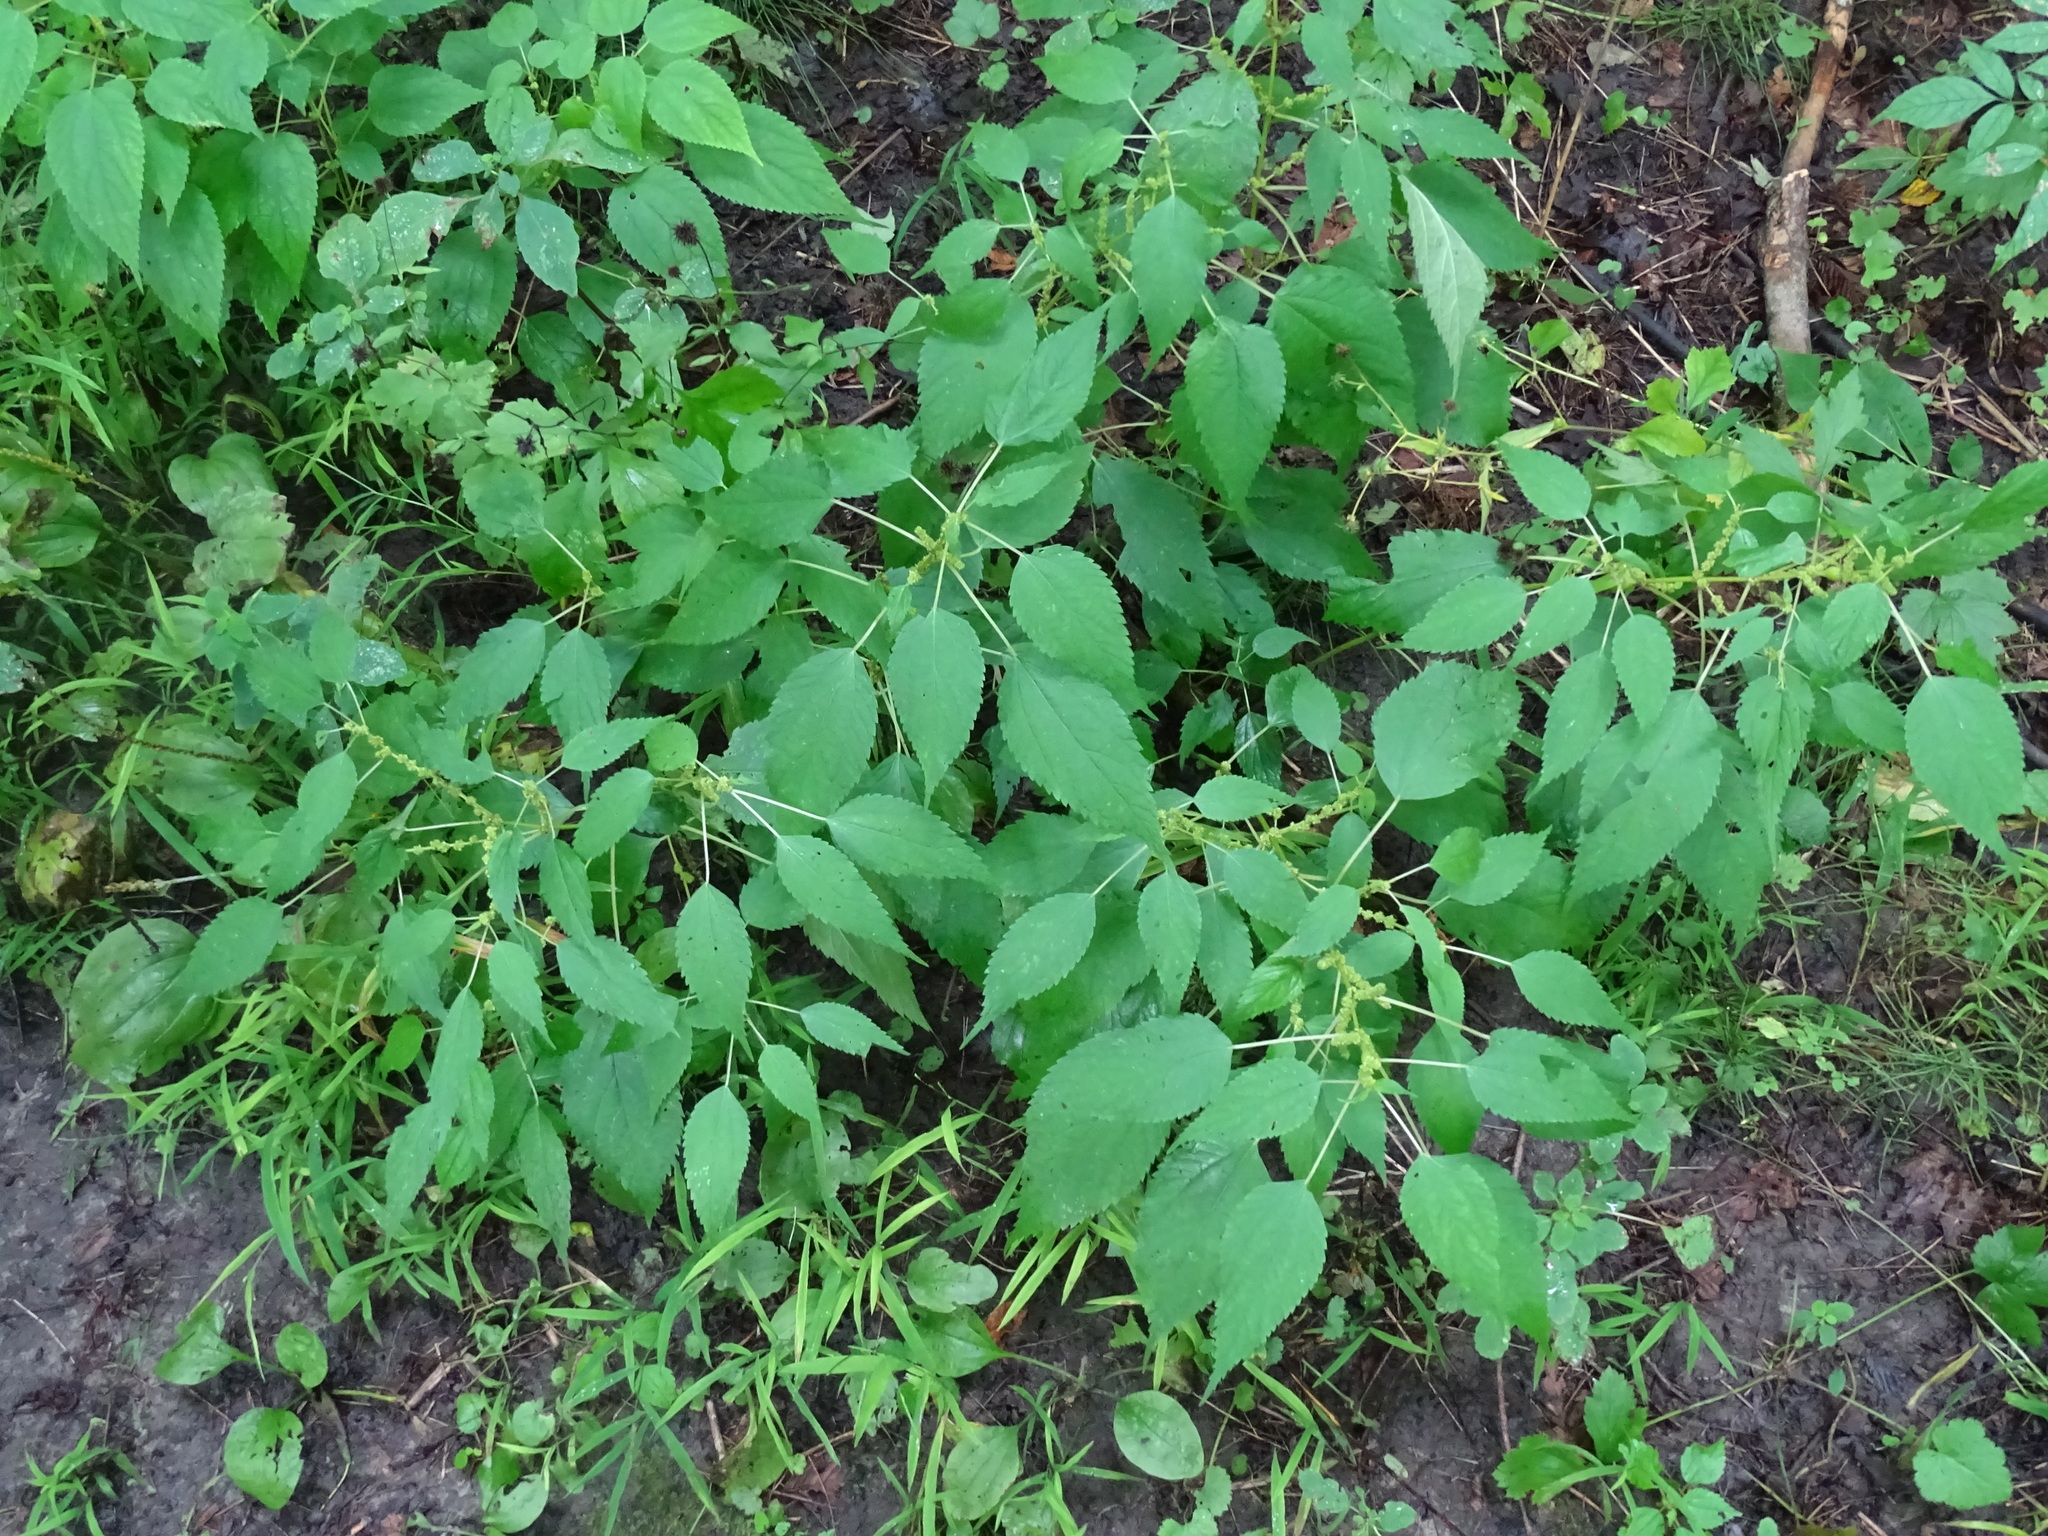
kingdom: Plantae
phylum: Tracheophyta
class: Magnoliopsida
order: Rosales
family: Urticaceae
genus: Boehmeria
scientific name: Boehmeria cylindrica
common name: Bog-hemp
